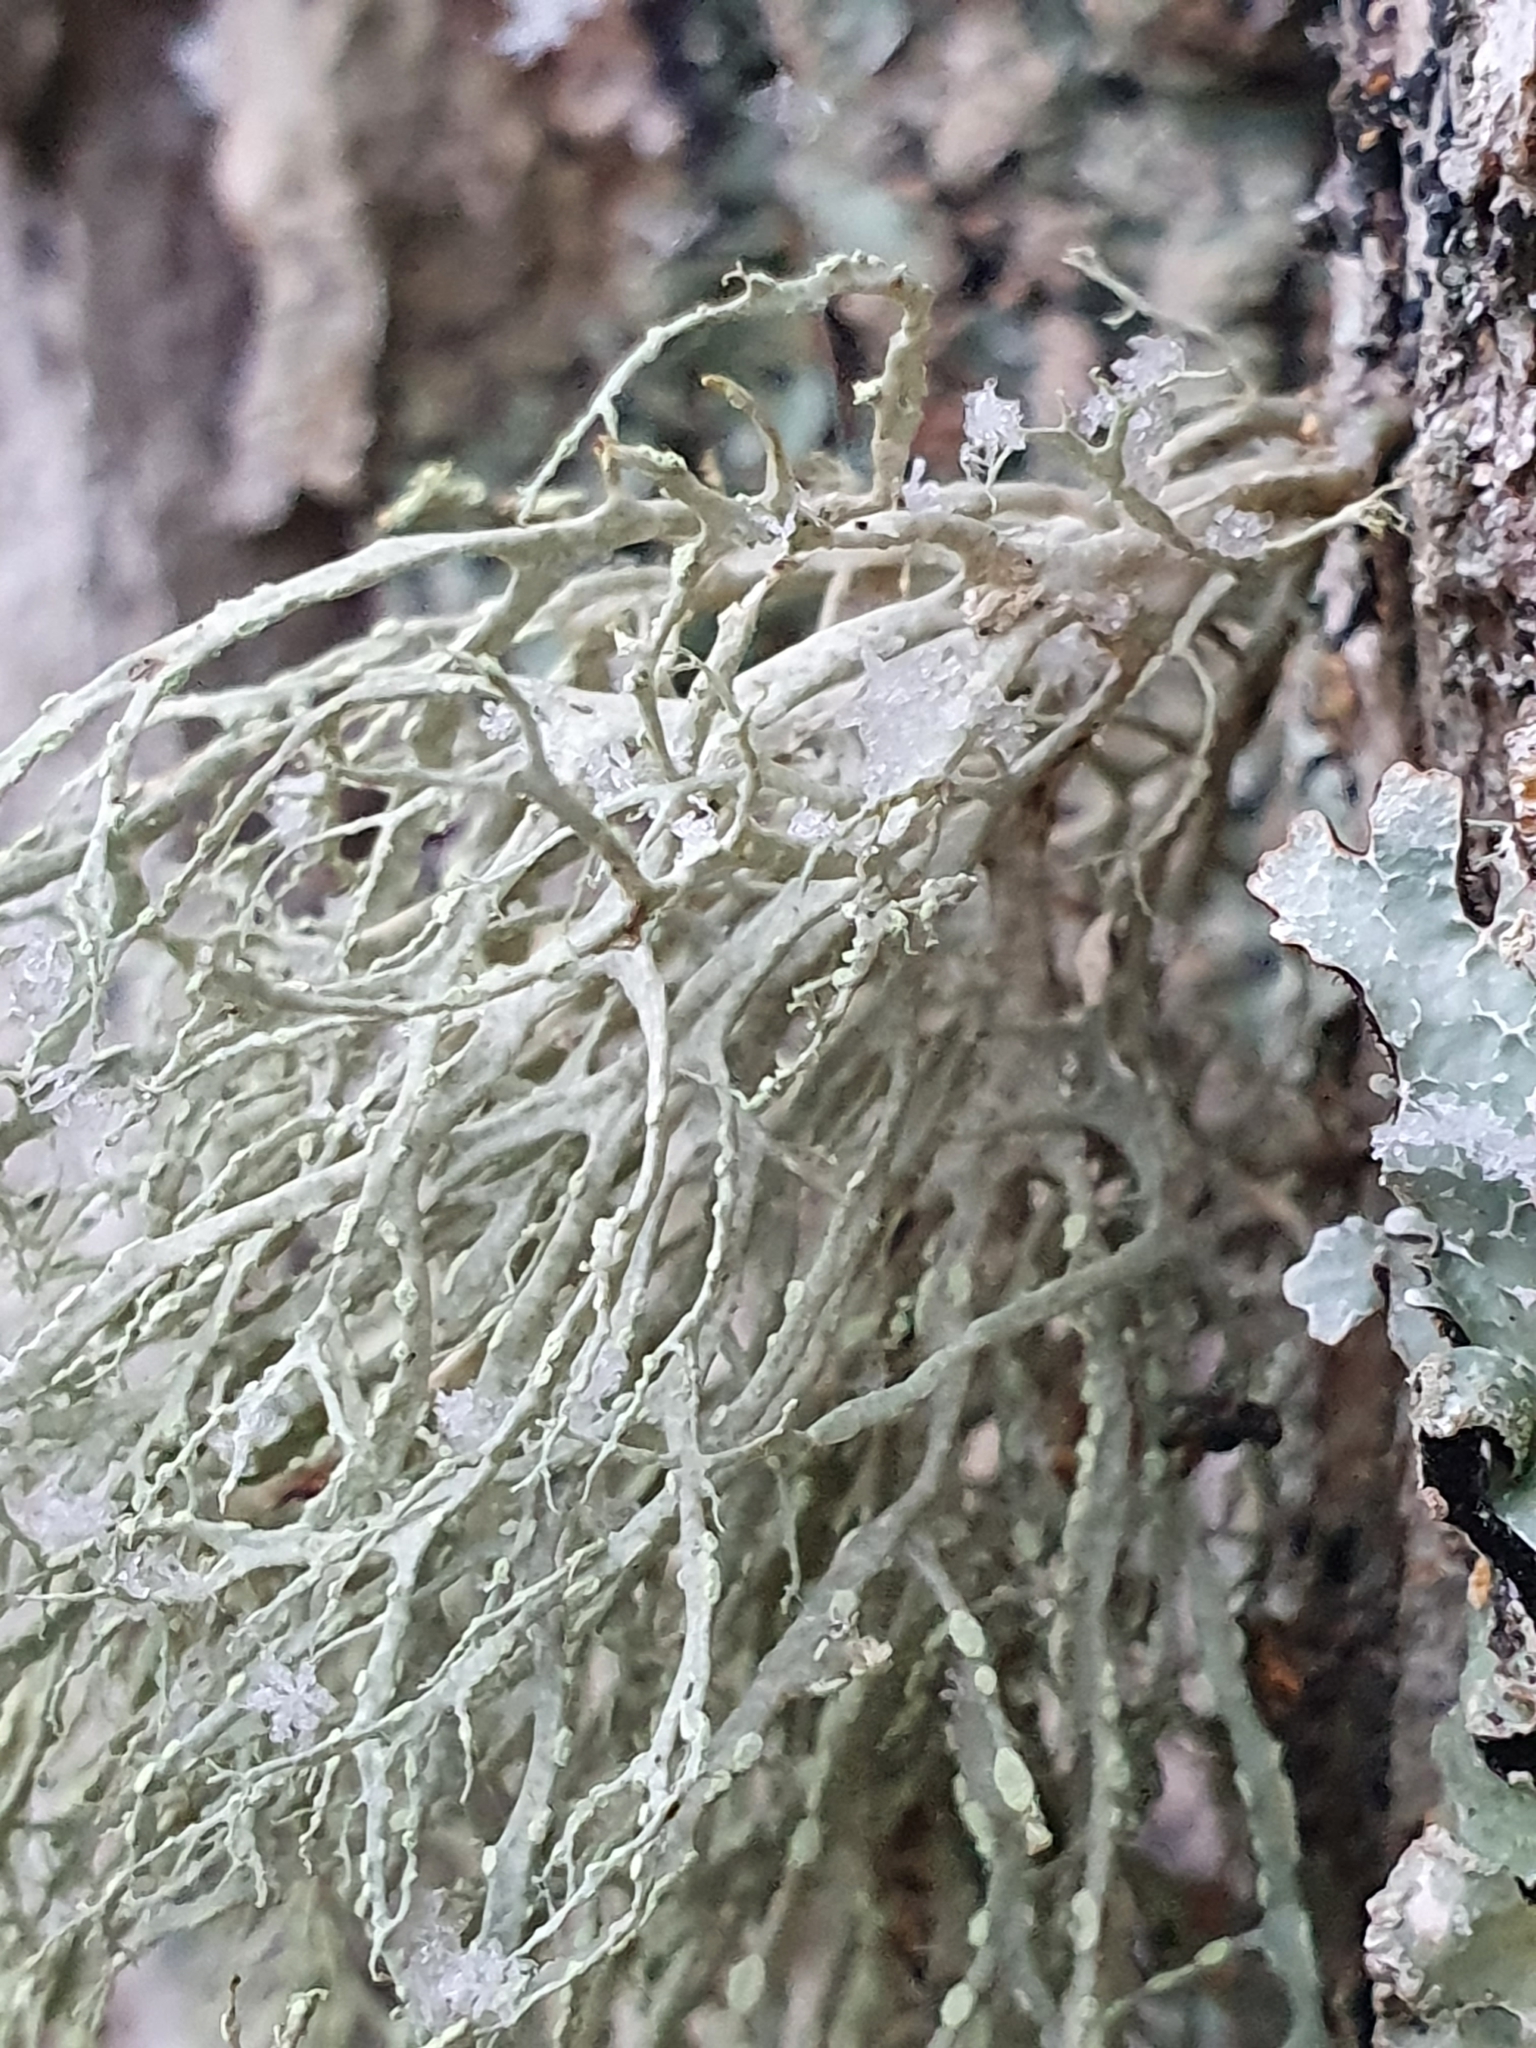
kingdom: Fungi
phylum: Ascomycota
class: Lecanoromycetes
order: Lecanorales
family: Ramalinaceae
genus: Ramalina
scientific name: Ramalina farinacea
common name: Farinose cartilage lichen
